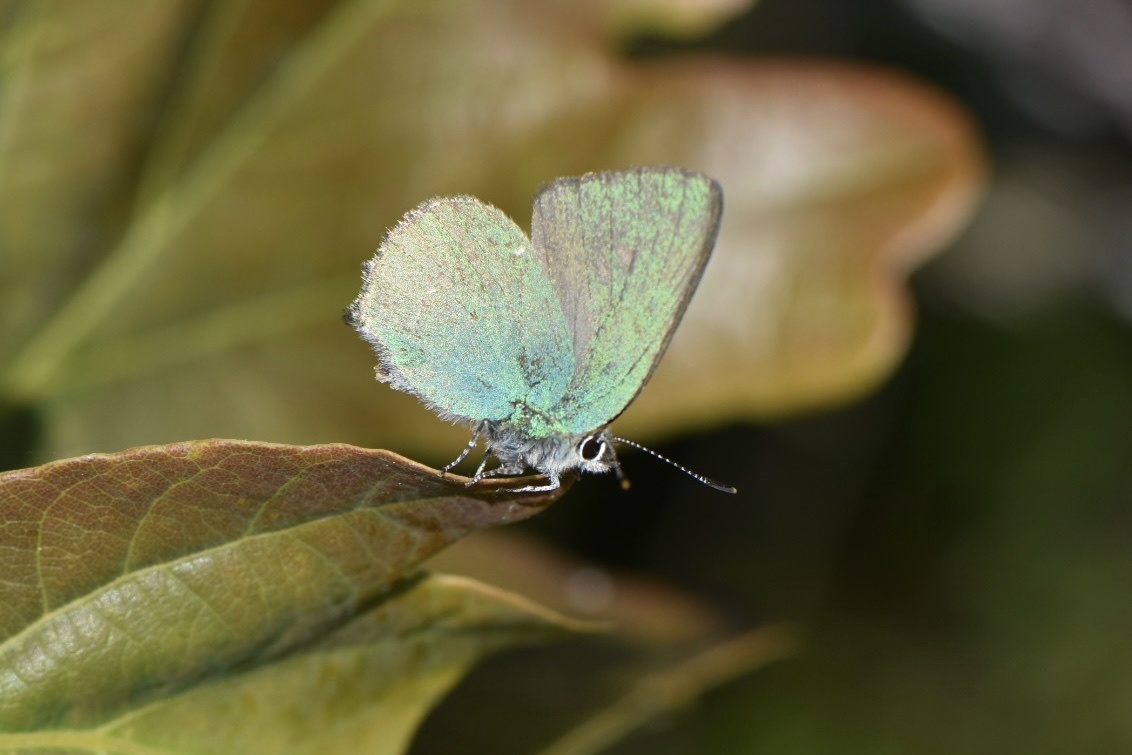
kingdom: Animalia
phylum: Arthropoda
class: Insecta
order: Lepidoptera
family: Lycaenidae
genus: Callophrys
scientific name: Callophrys rubi
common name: Green hairstreak
